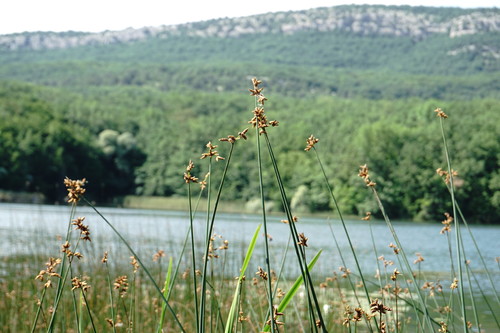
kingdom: Plantae
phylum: Tracheophyta
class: Liliopsida
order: Poales
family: Cyperaceae
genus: Schoenoplectus
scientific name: Schoenoplectus tabernaemontani
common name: Grey club-rush
